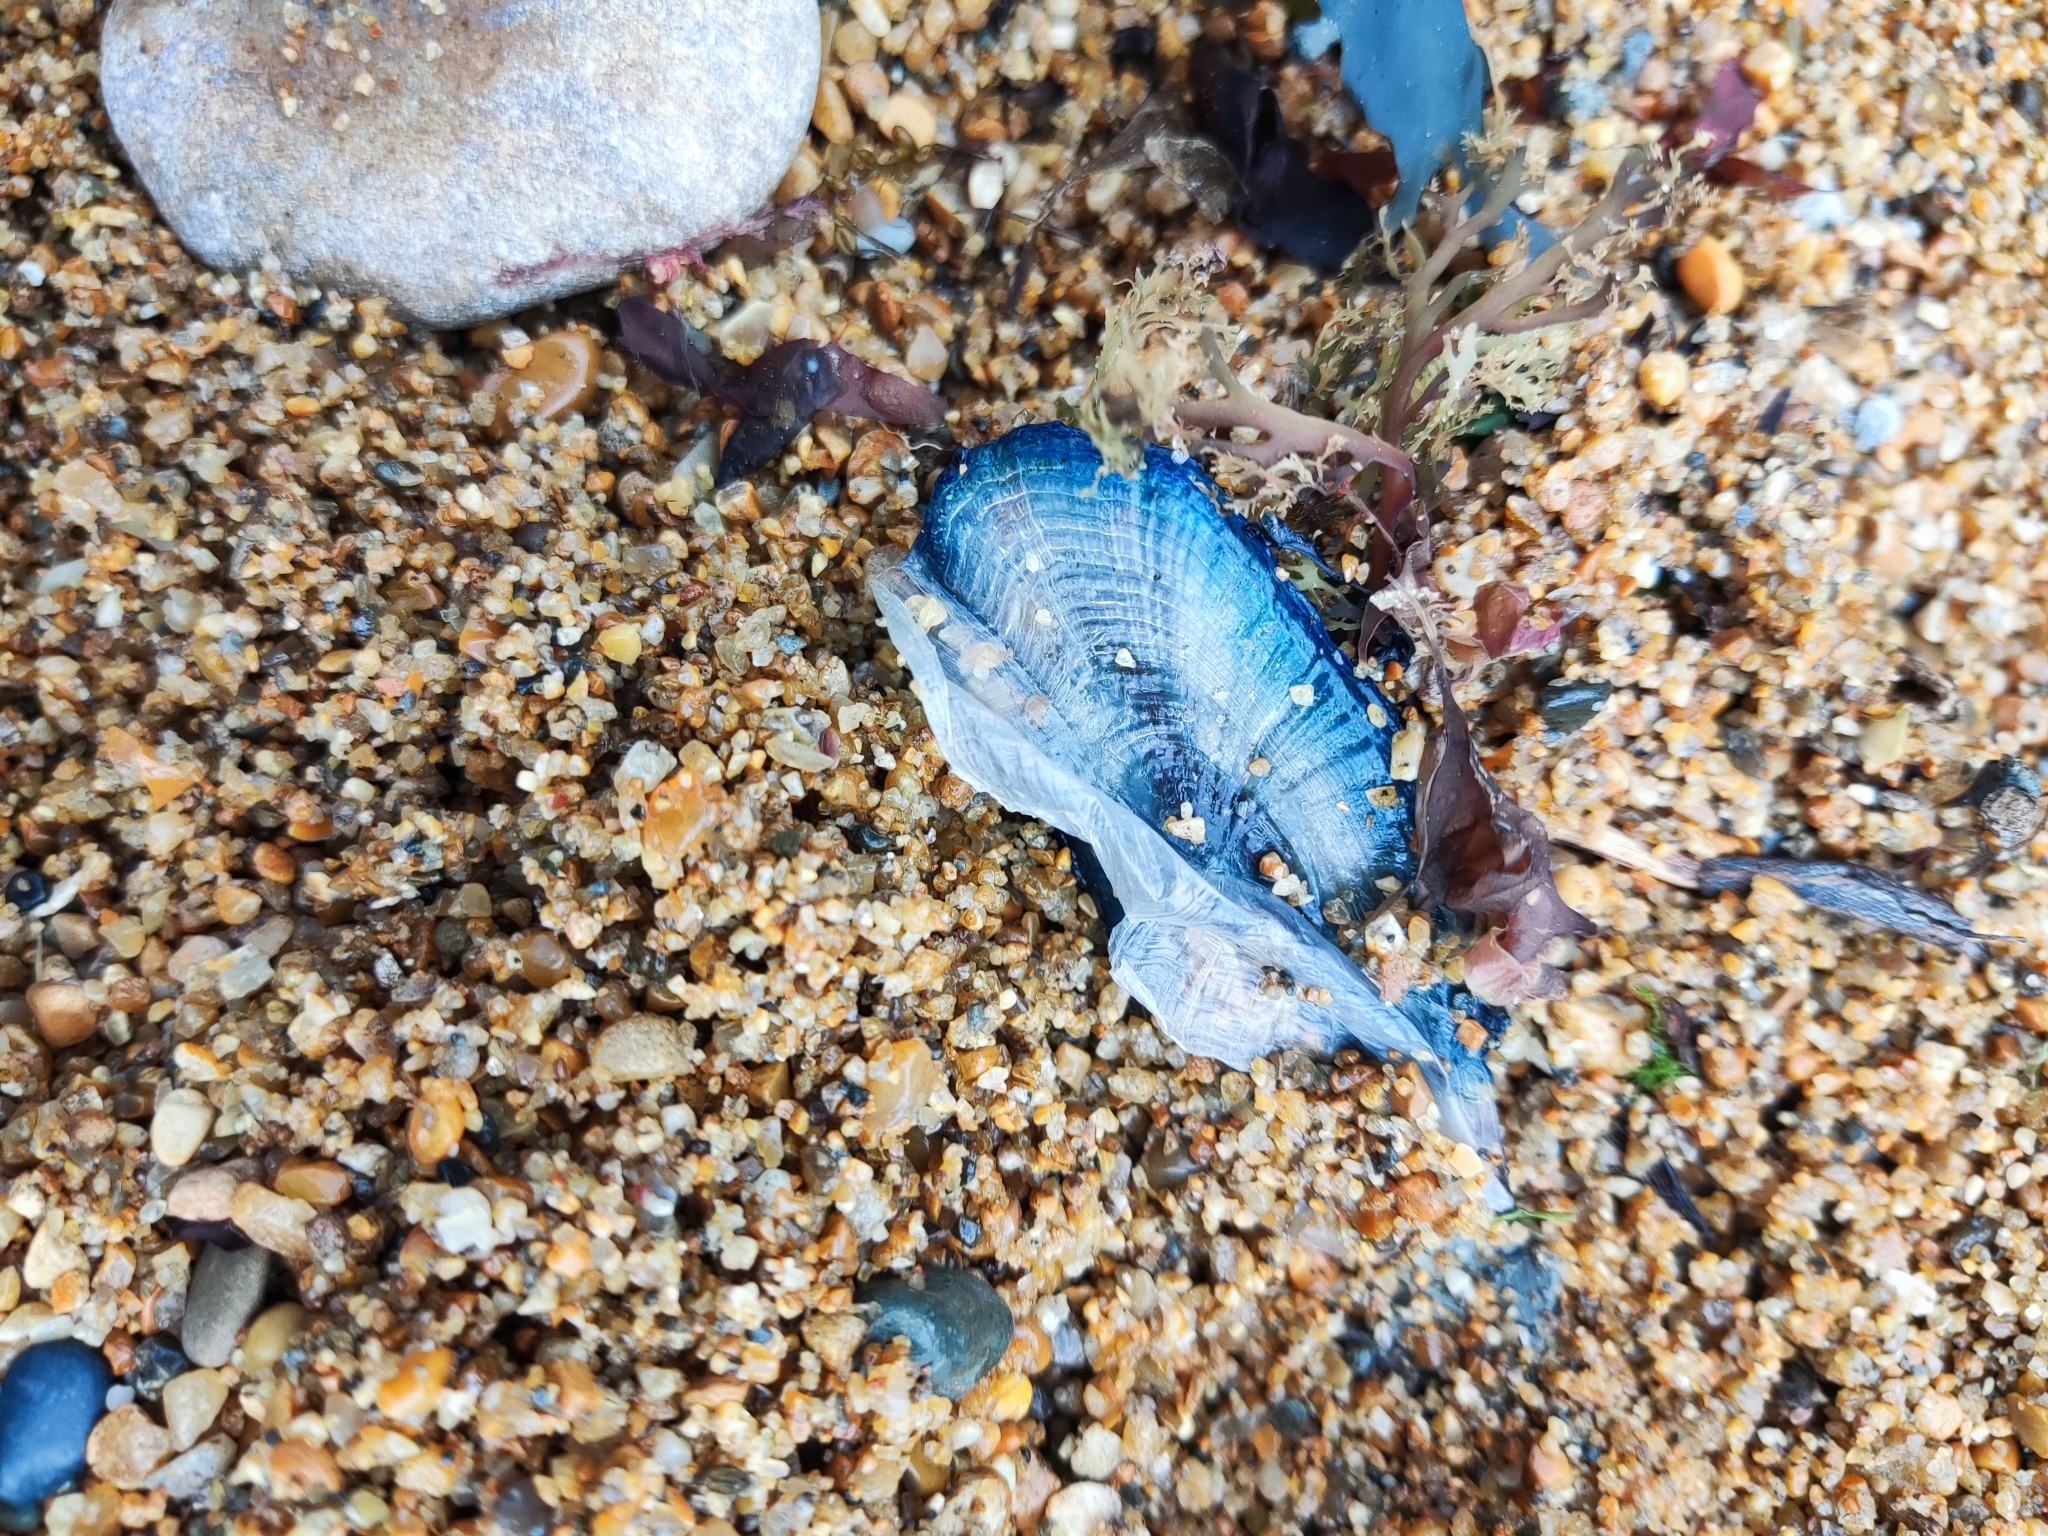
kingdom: Animalia
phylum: Cnidaria
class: Hydrozoa
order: Anthoathecata
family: Porpitidae
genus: Velella
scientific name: Velella velella
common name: By-the-wind-sailor
